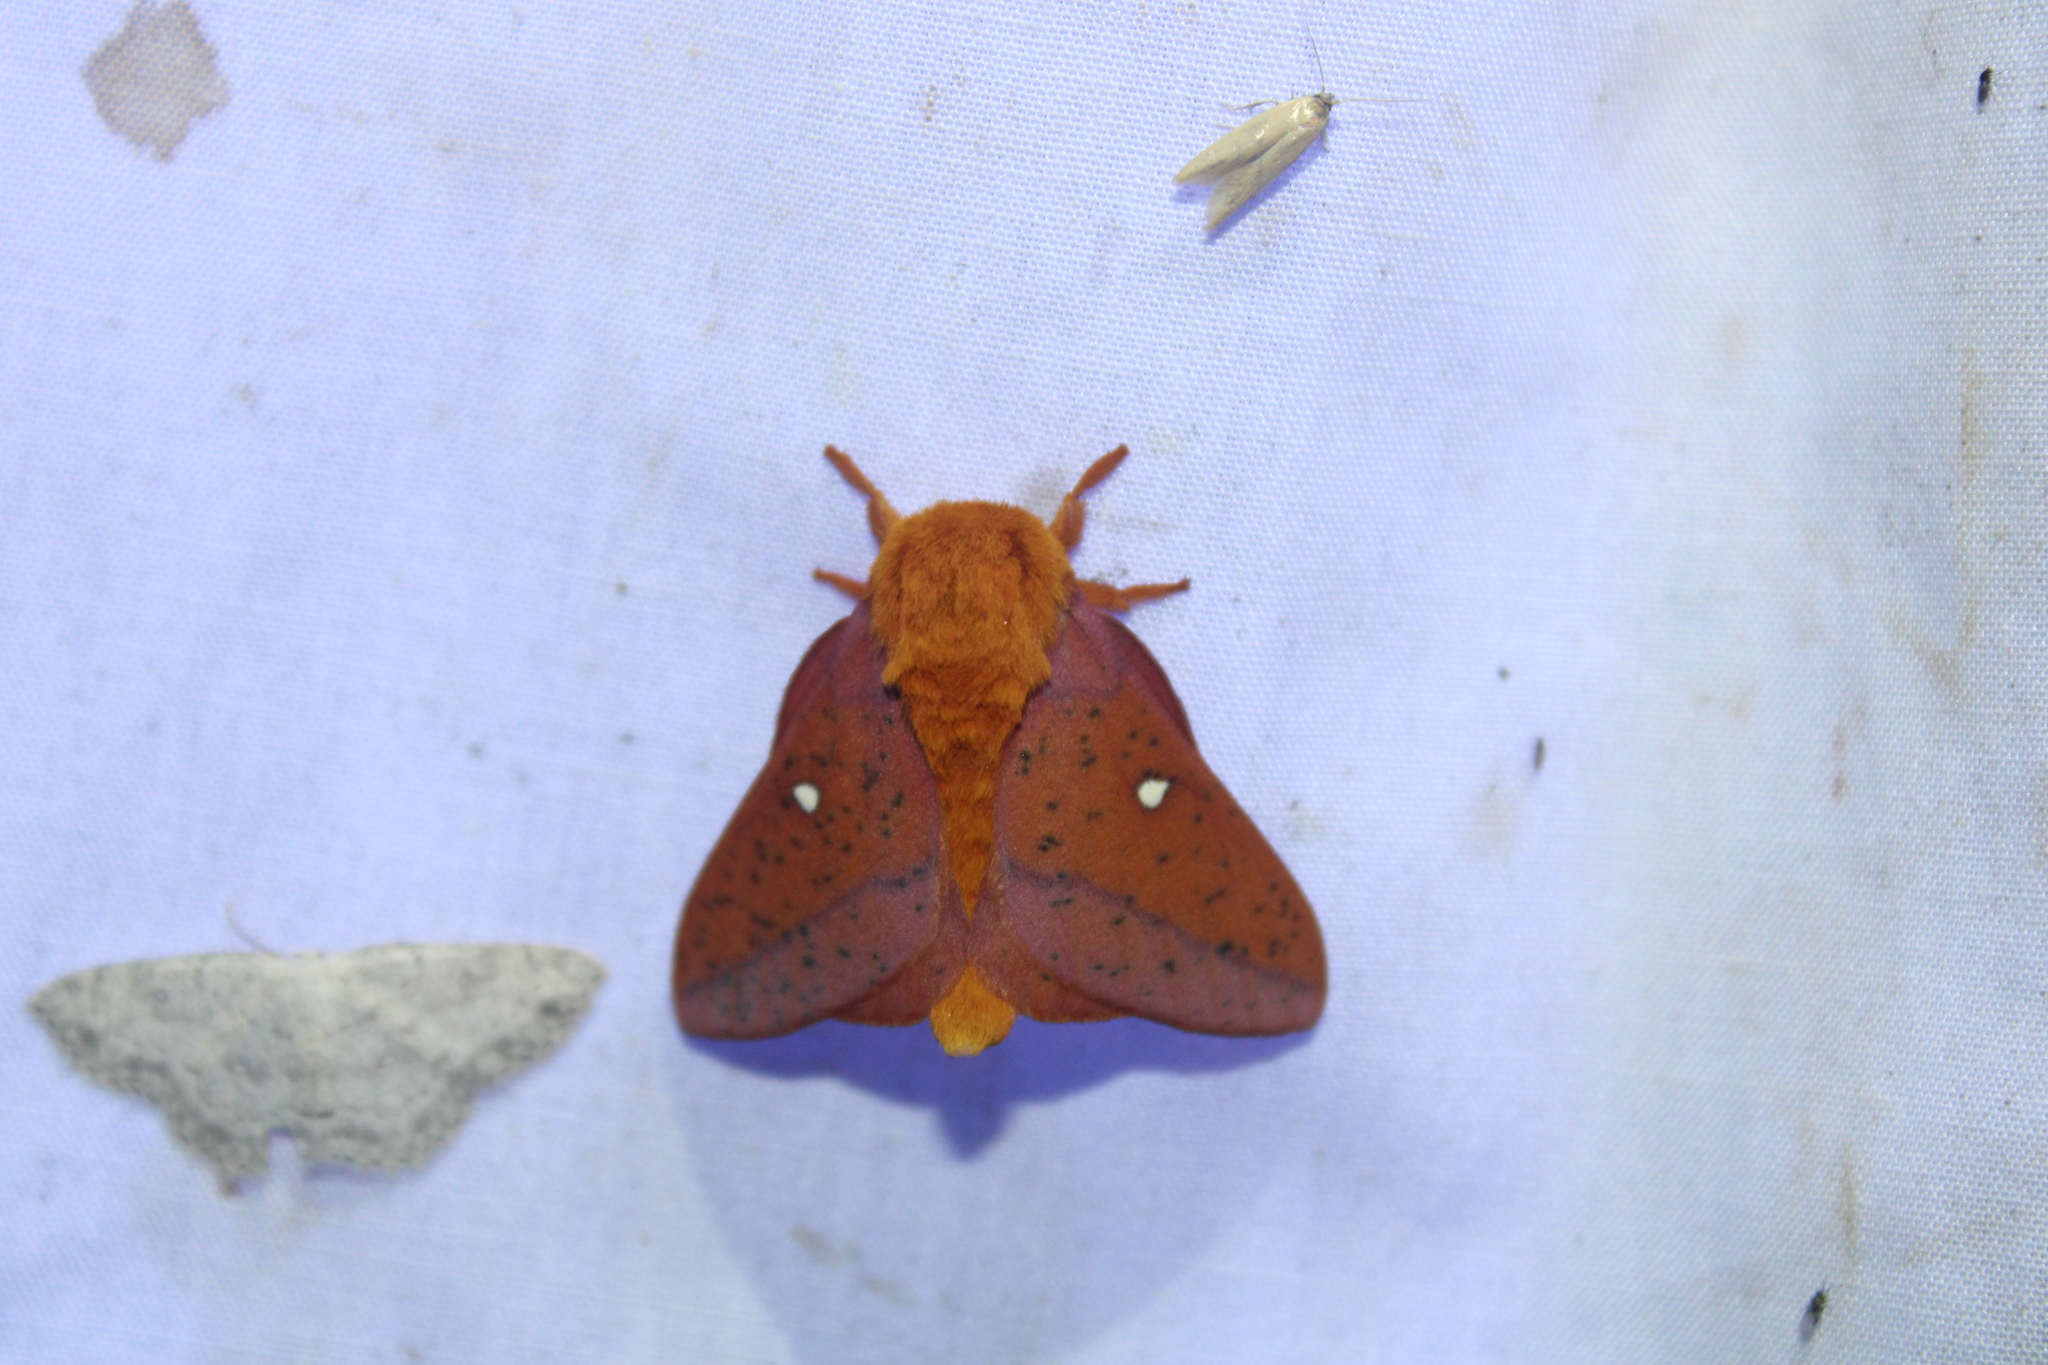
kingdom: Animalia
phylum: Arthropoda
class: Insecta
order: Lepidoptera
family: Saturniidae
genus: Anisota
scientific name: Anisota stigma
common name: Spiny oakworm moth
